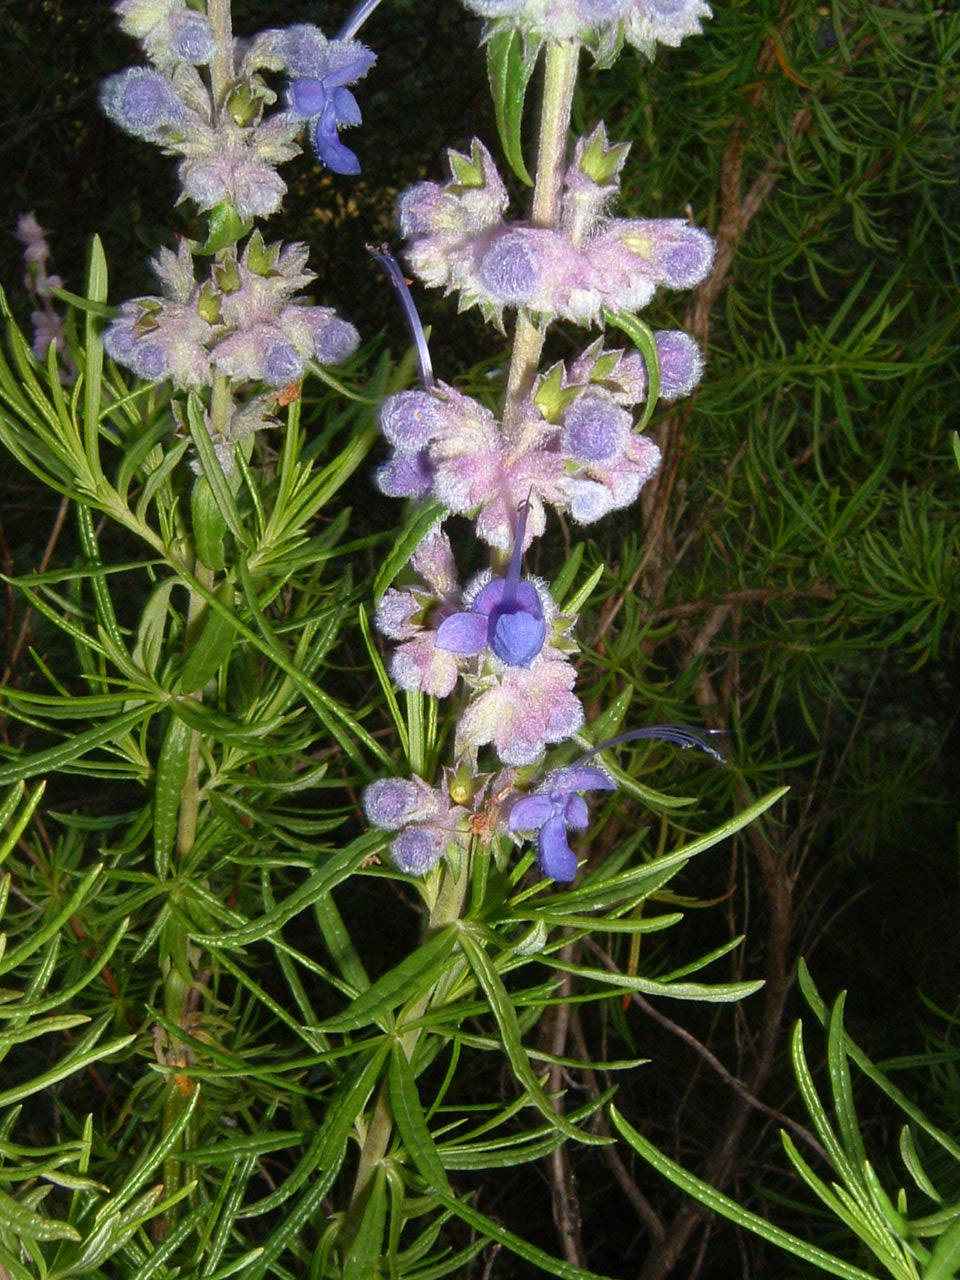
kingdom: Plantae
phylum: Tracheophyta
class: Magnoliopsida
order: Lamiales
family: Lamiaceae
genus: Trichostema
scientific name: Trichostema lanatum
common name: Woolly bluecurls
